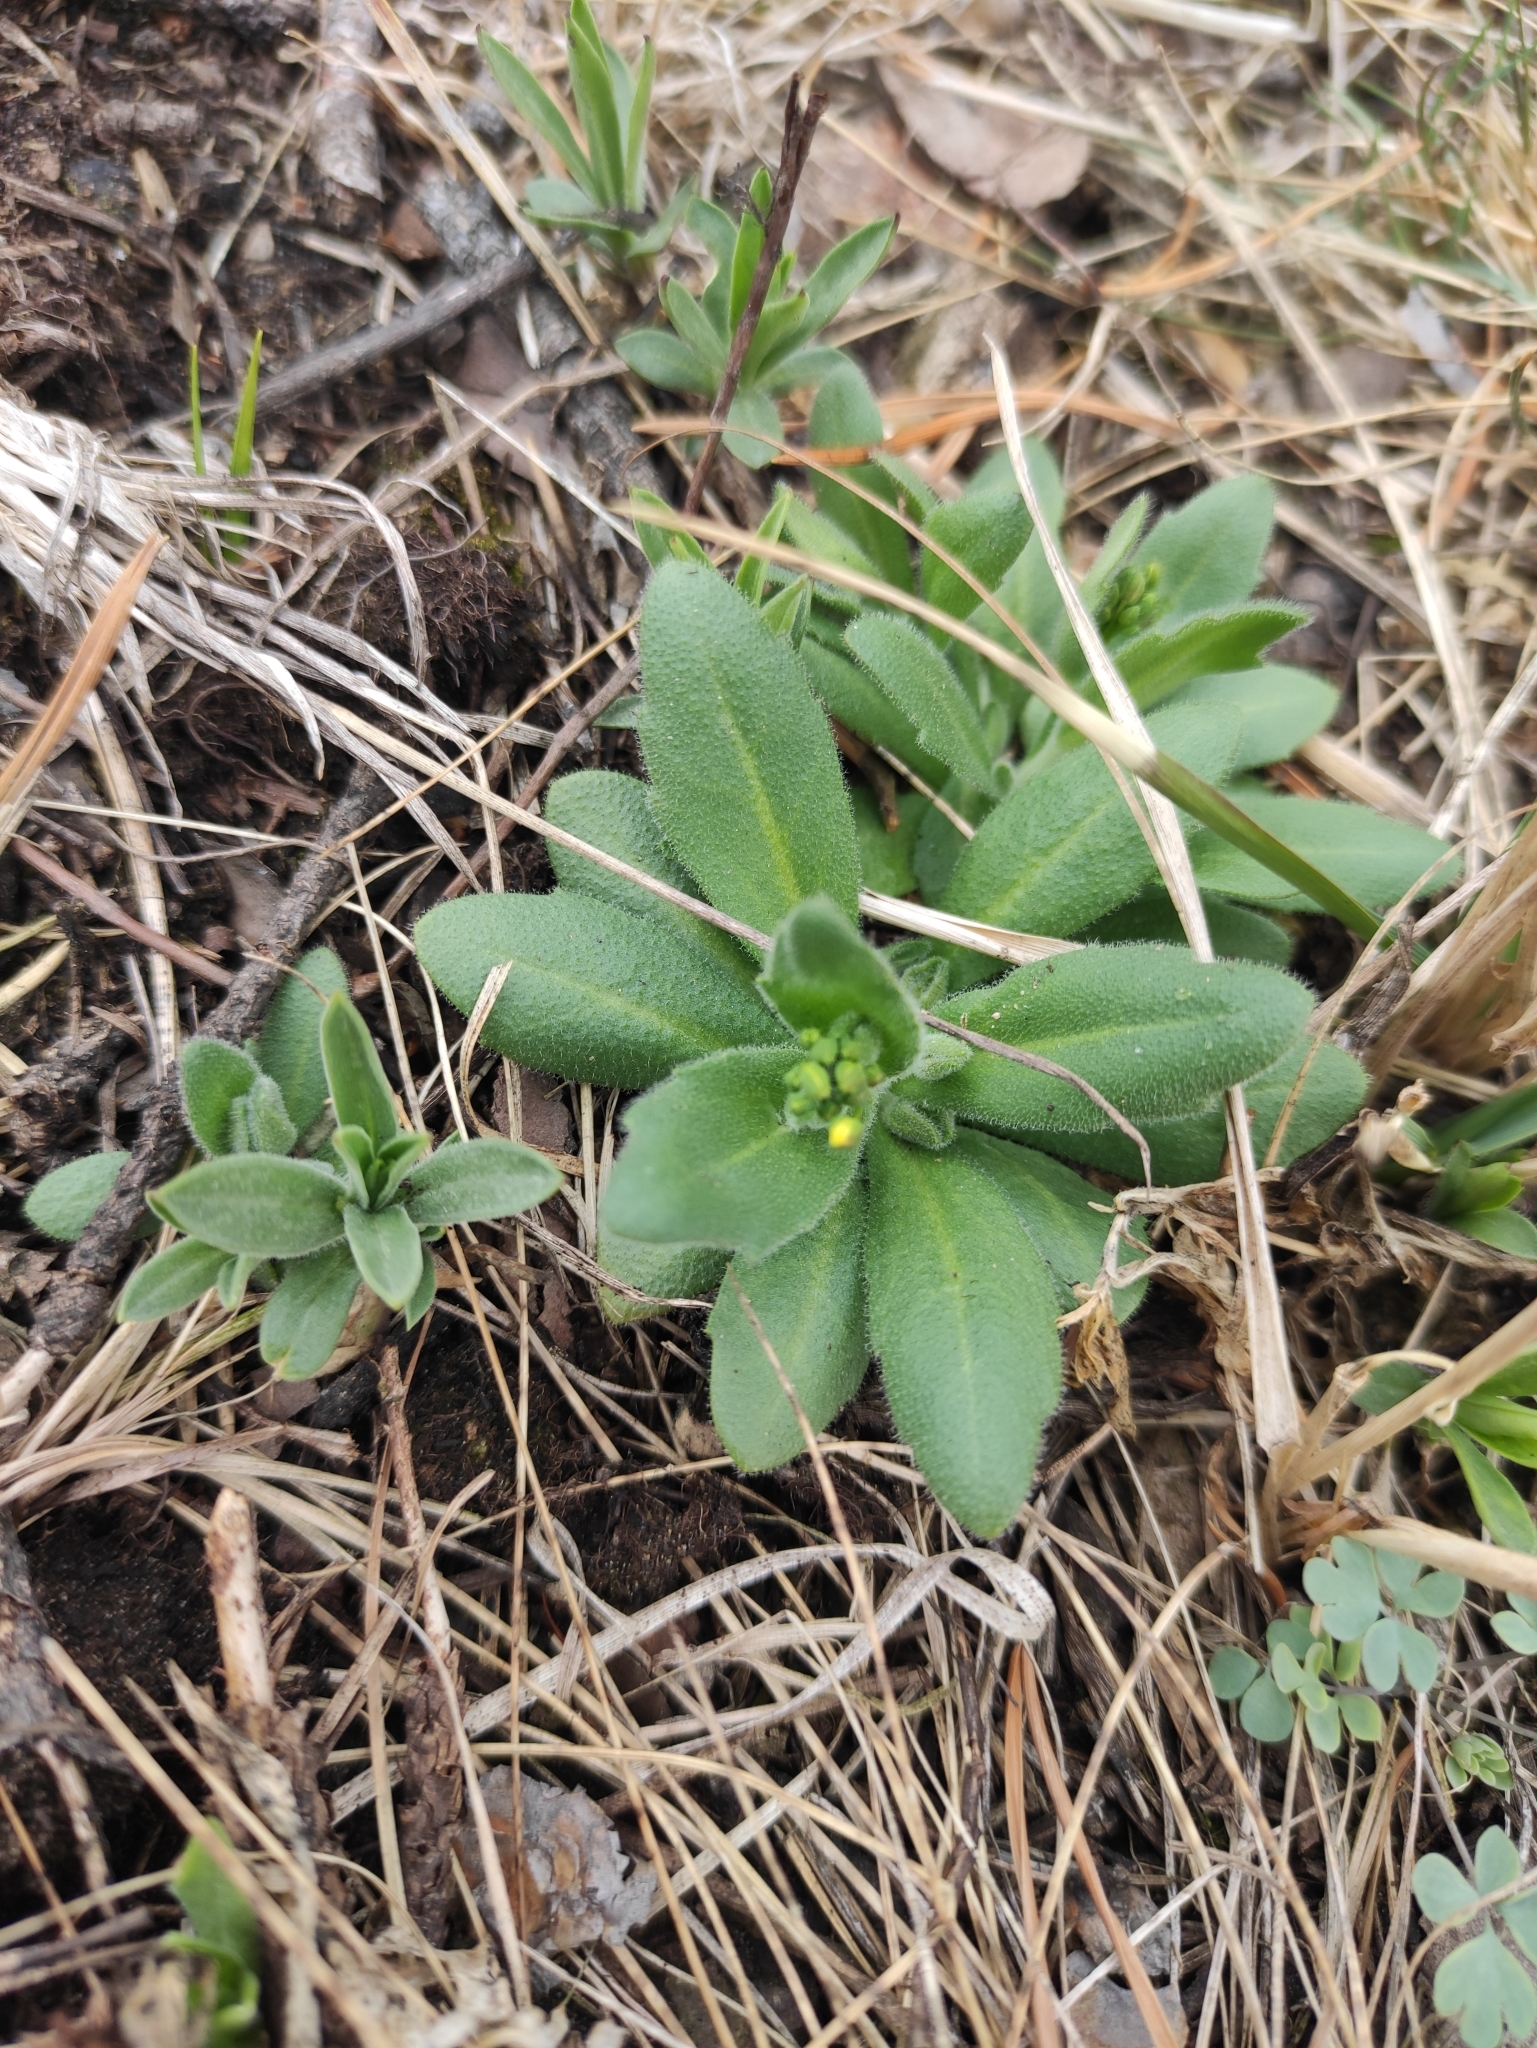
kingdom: Plantae
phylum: Tracheophyta
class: Magnoliopsida
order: Brassicales
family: Brassicaceae
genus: Draba
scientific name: Draba nemorosa
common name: Wood whitlow-grass
